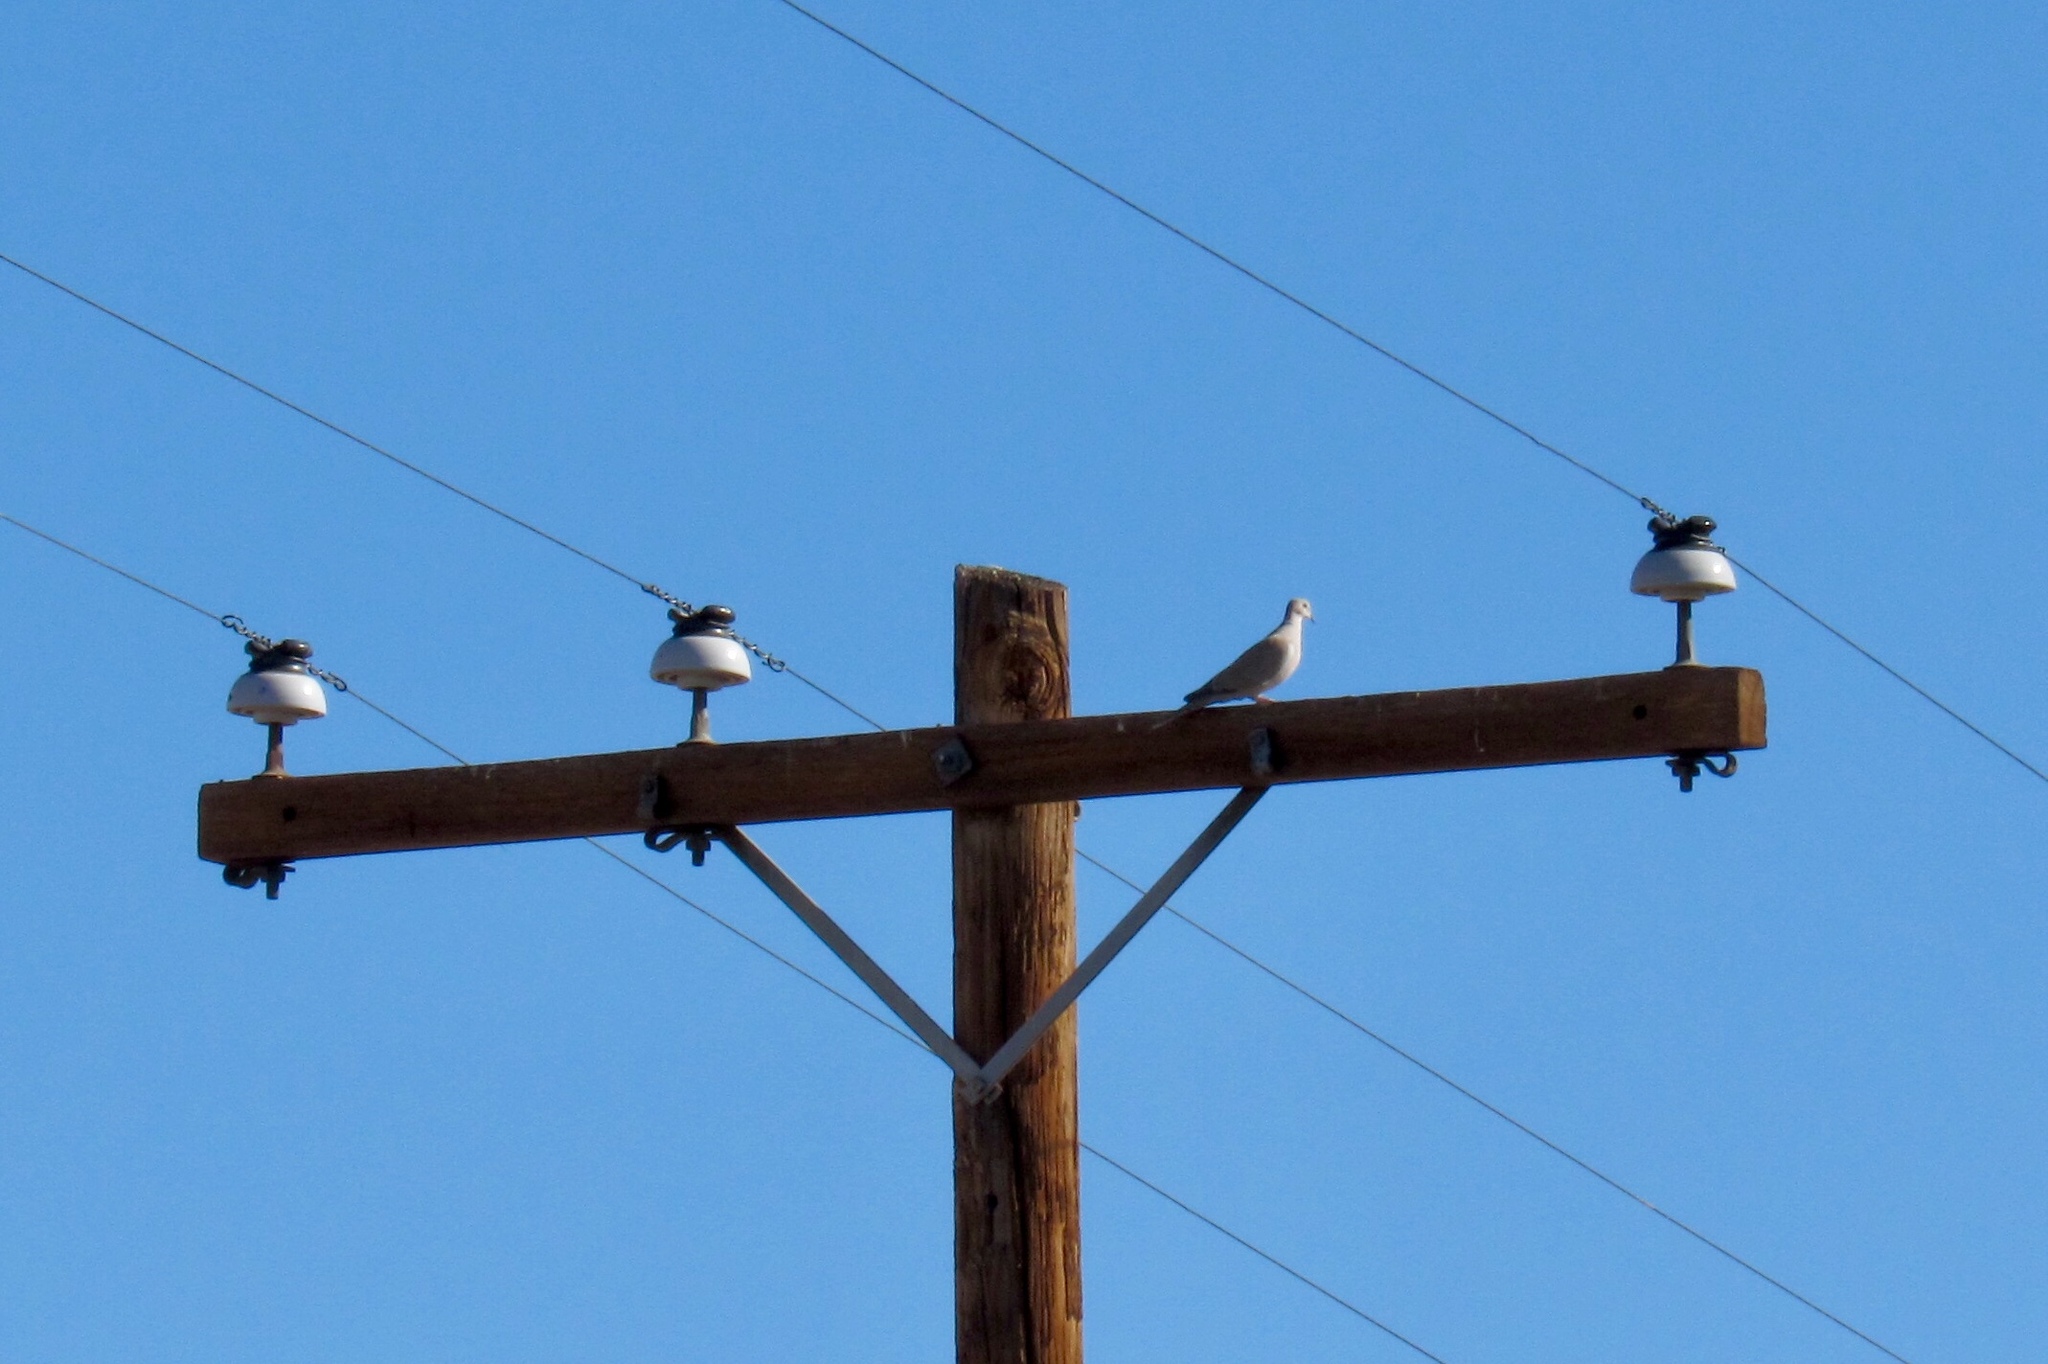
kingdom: Animalia
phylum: Chordata
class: Aves
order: Columbiformes
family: Columbidae
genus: Streptopelia
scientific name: Streptopelia decaocto
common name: Eurasian collared dove
